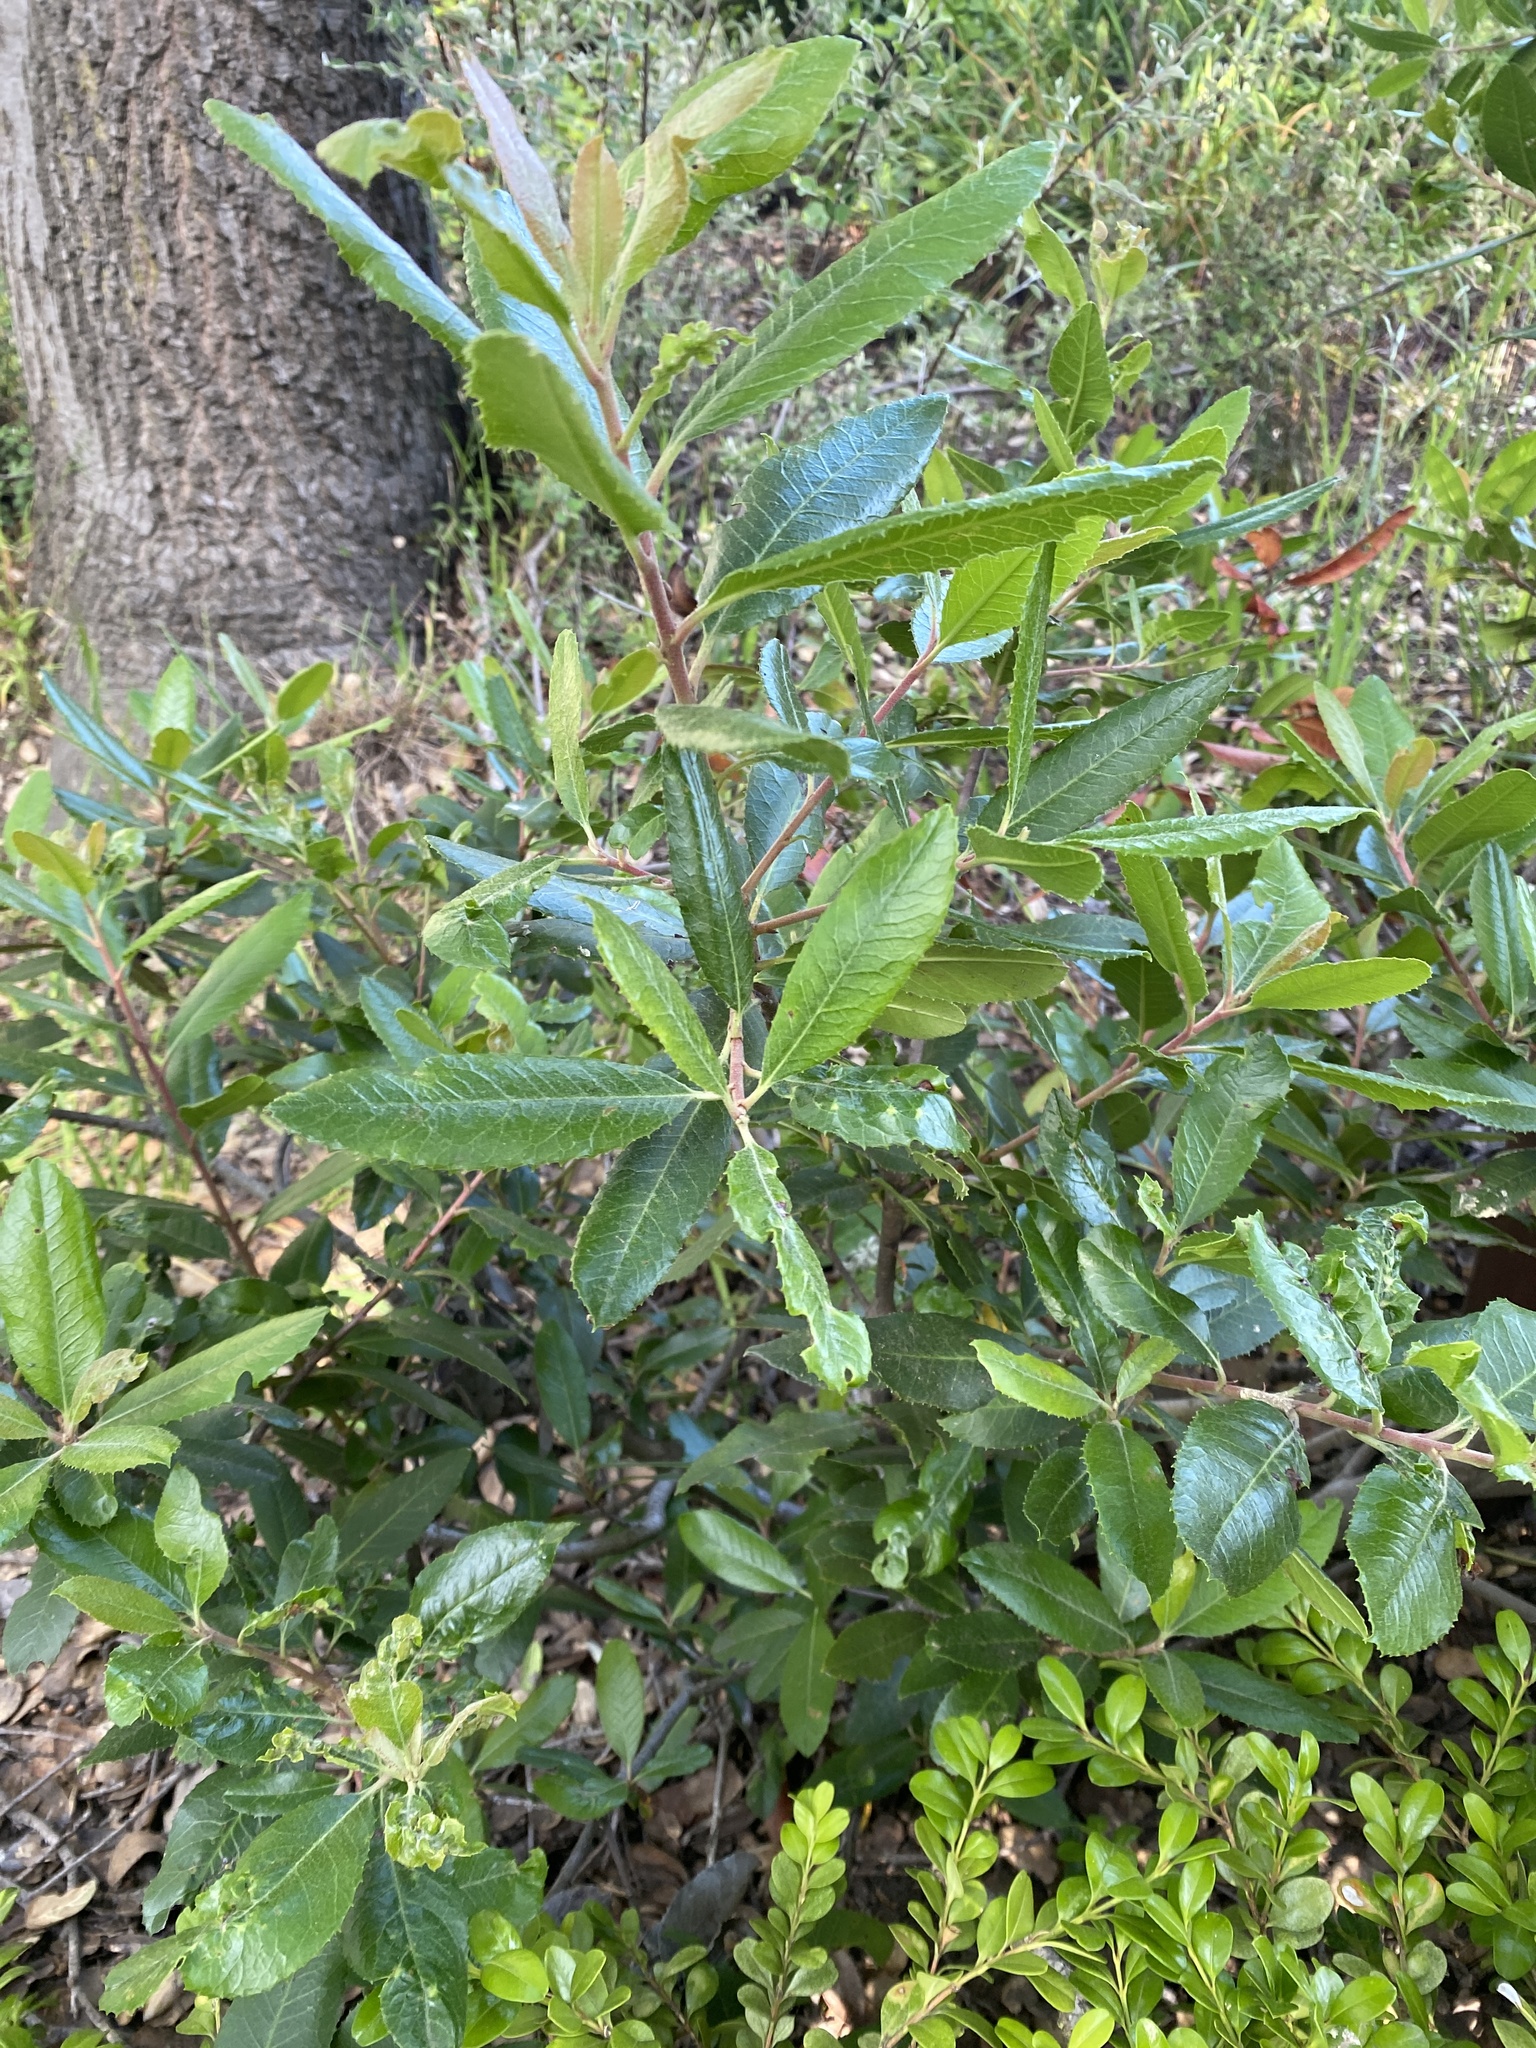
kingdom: Plantae
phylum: Tracheophyta
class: Magnoliopsida
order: Rosales
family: Rosaceae
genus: Heteromeles
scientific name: Heteromeles arbutifolia
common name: California-holly
